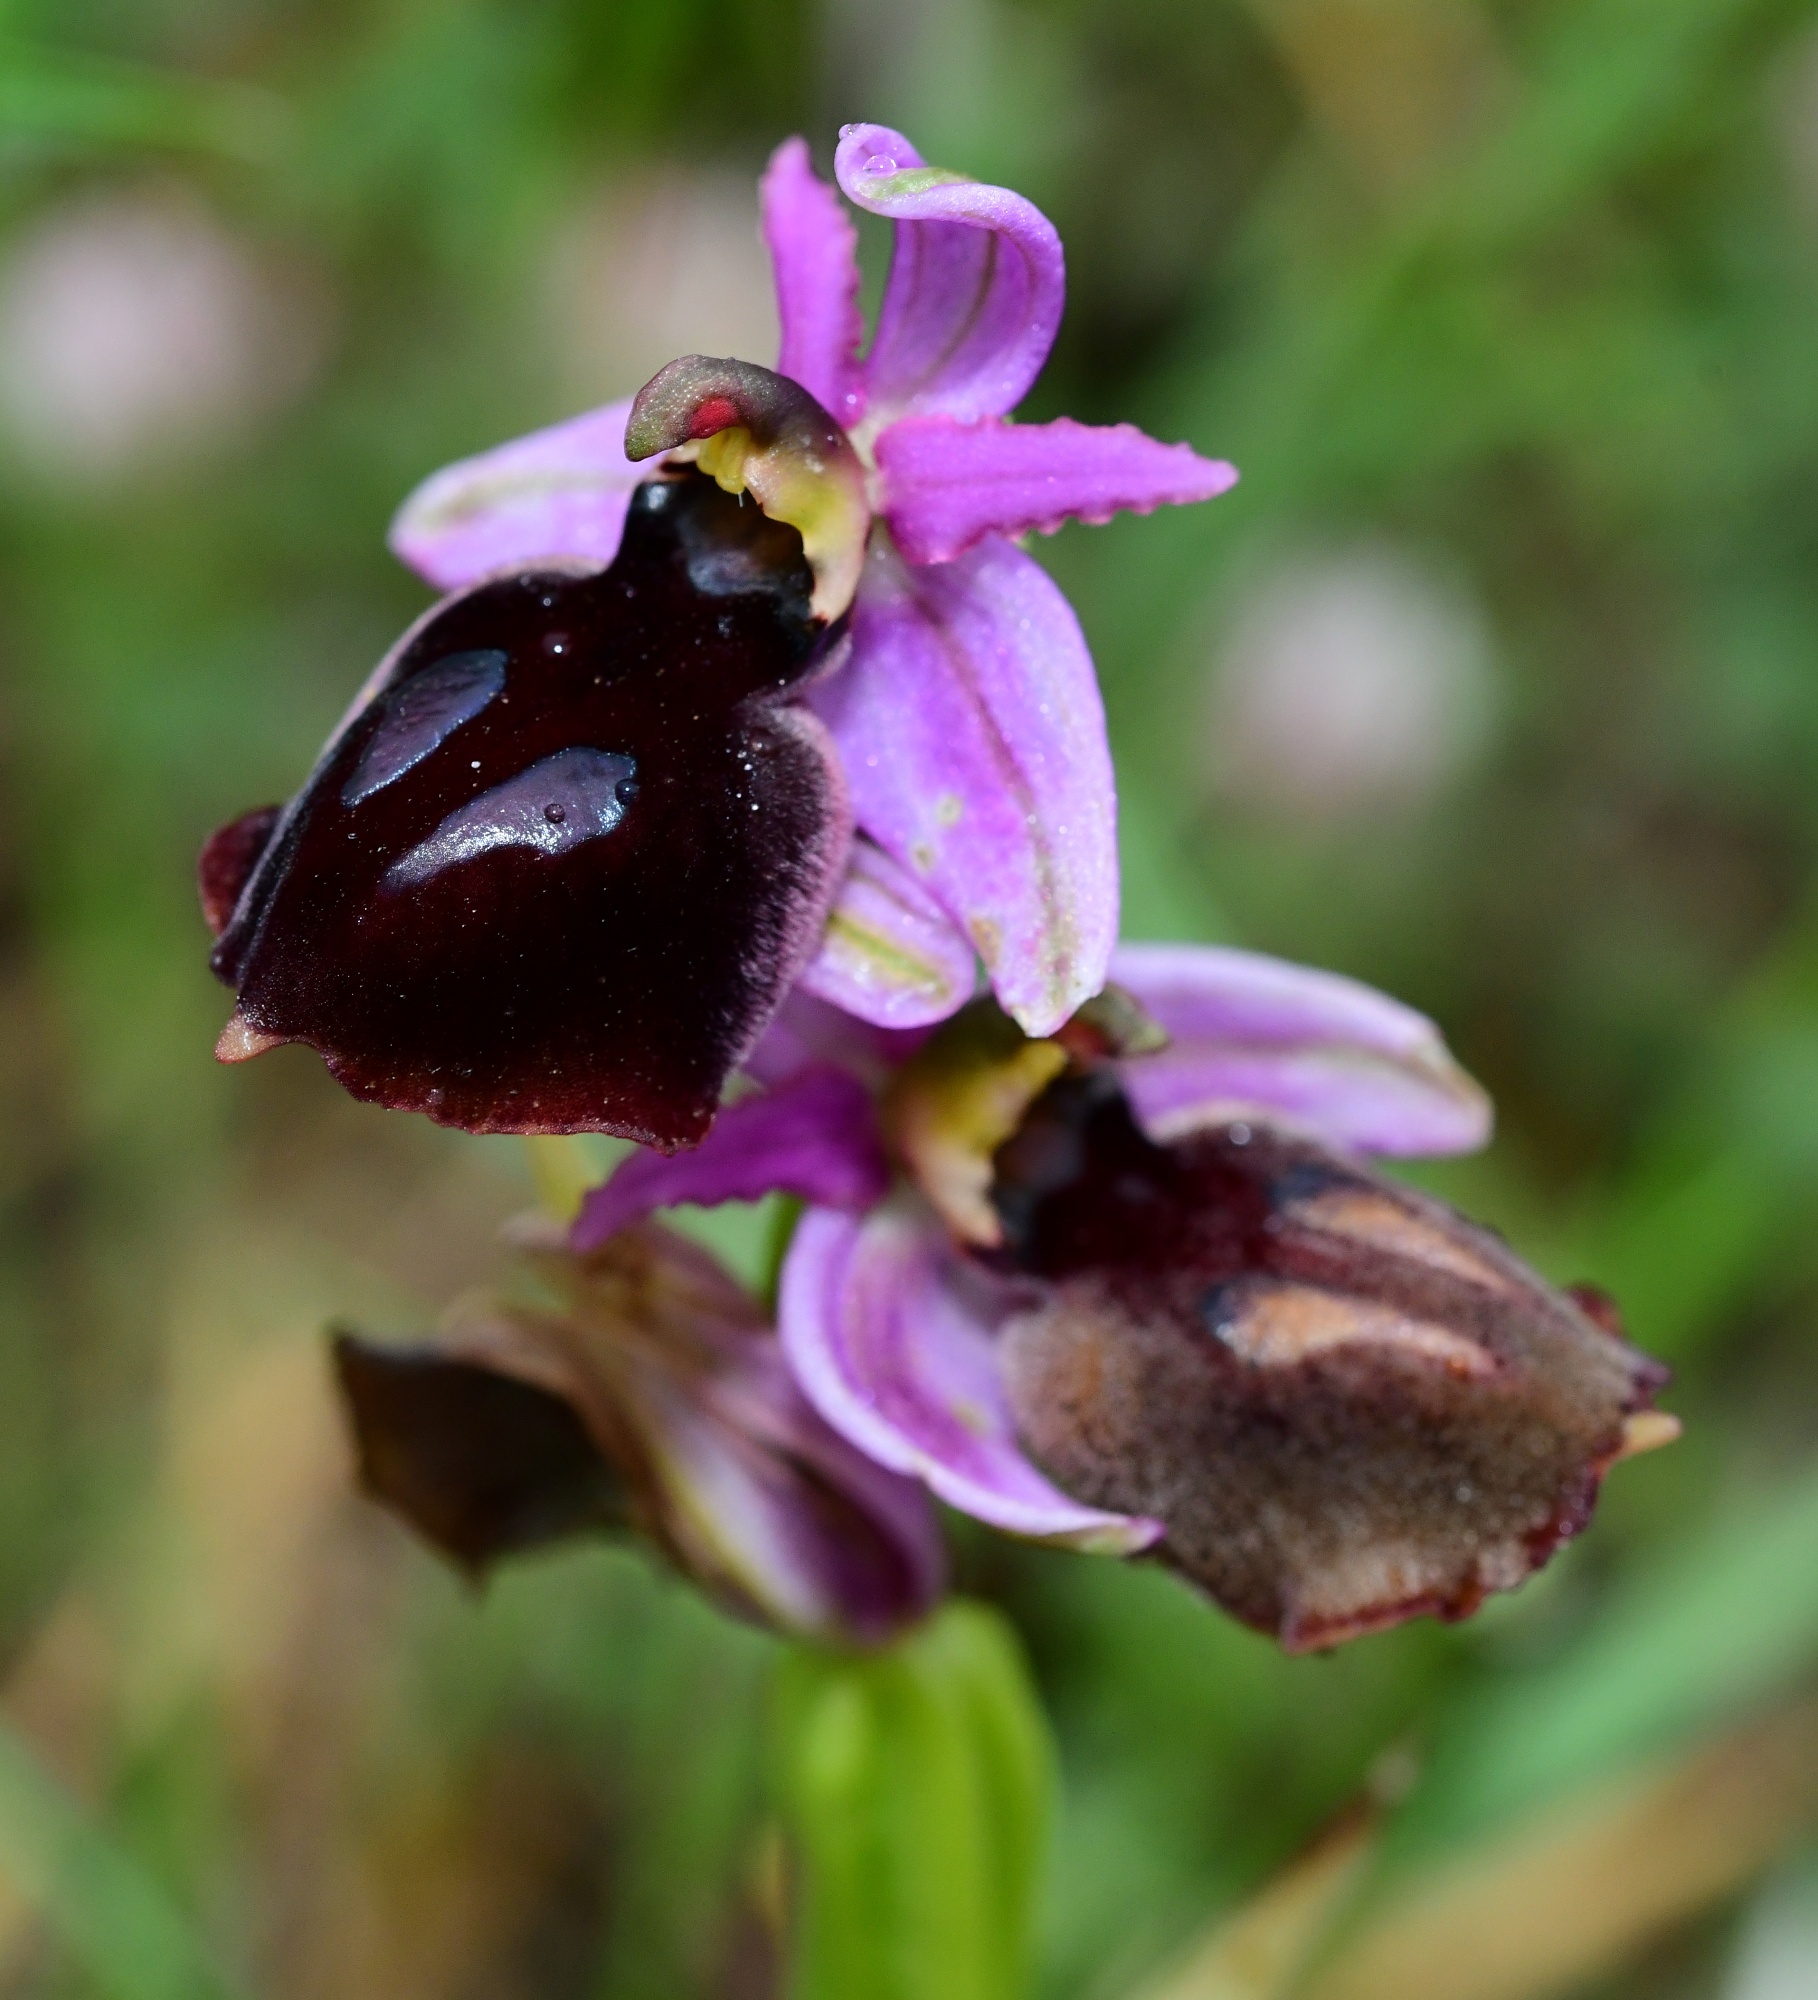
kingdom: Plantae
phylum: Tracheophyta
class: Liliopsida
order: Asparagales
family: Orchidaceae
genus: Ophrys
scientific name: Ophrys ferrum-equinum
